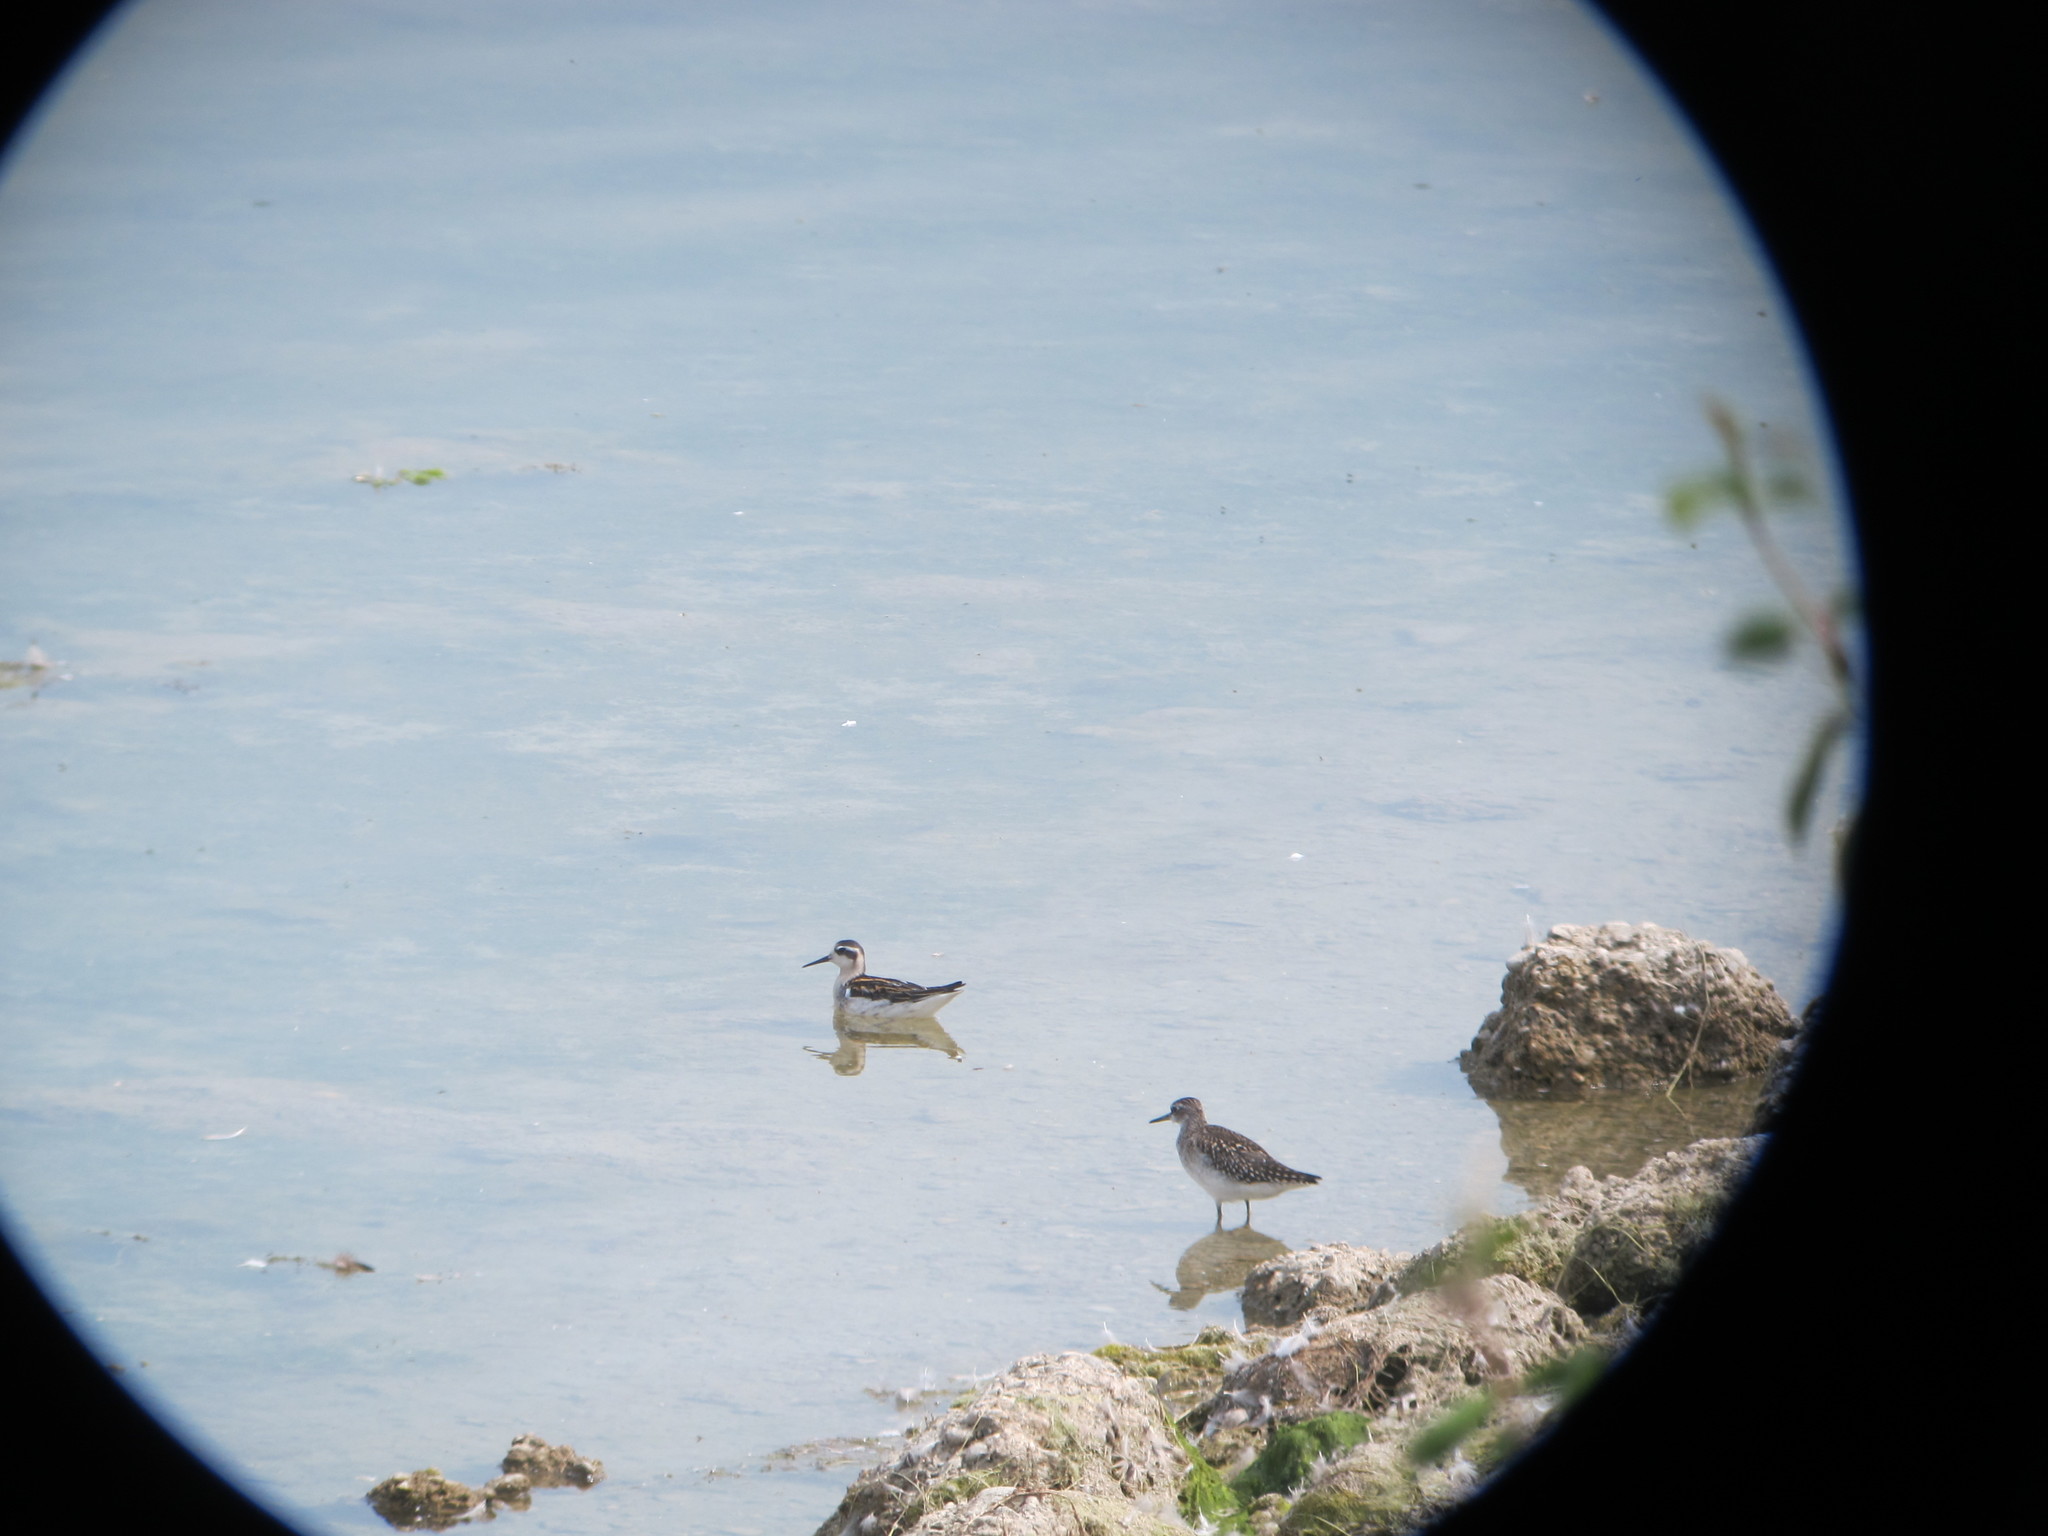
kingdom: Animalia
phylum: Chordata
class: Aves
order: Charadriiformes
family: Scolopacidae
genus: Phalaropus
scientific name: Phalaropus lobatus
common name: Red-necked phalarope
